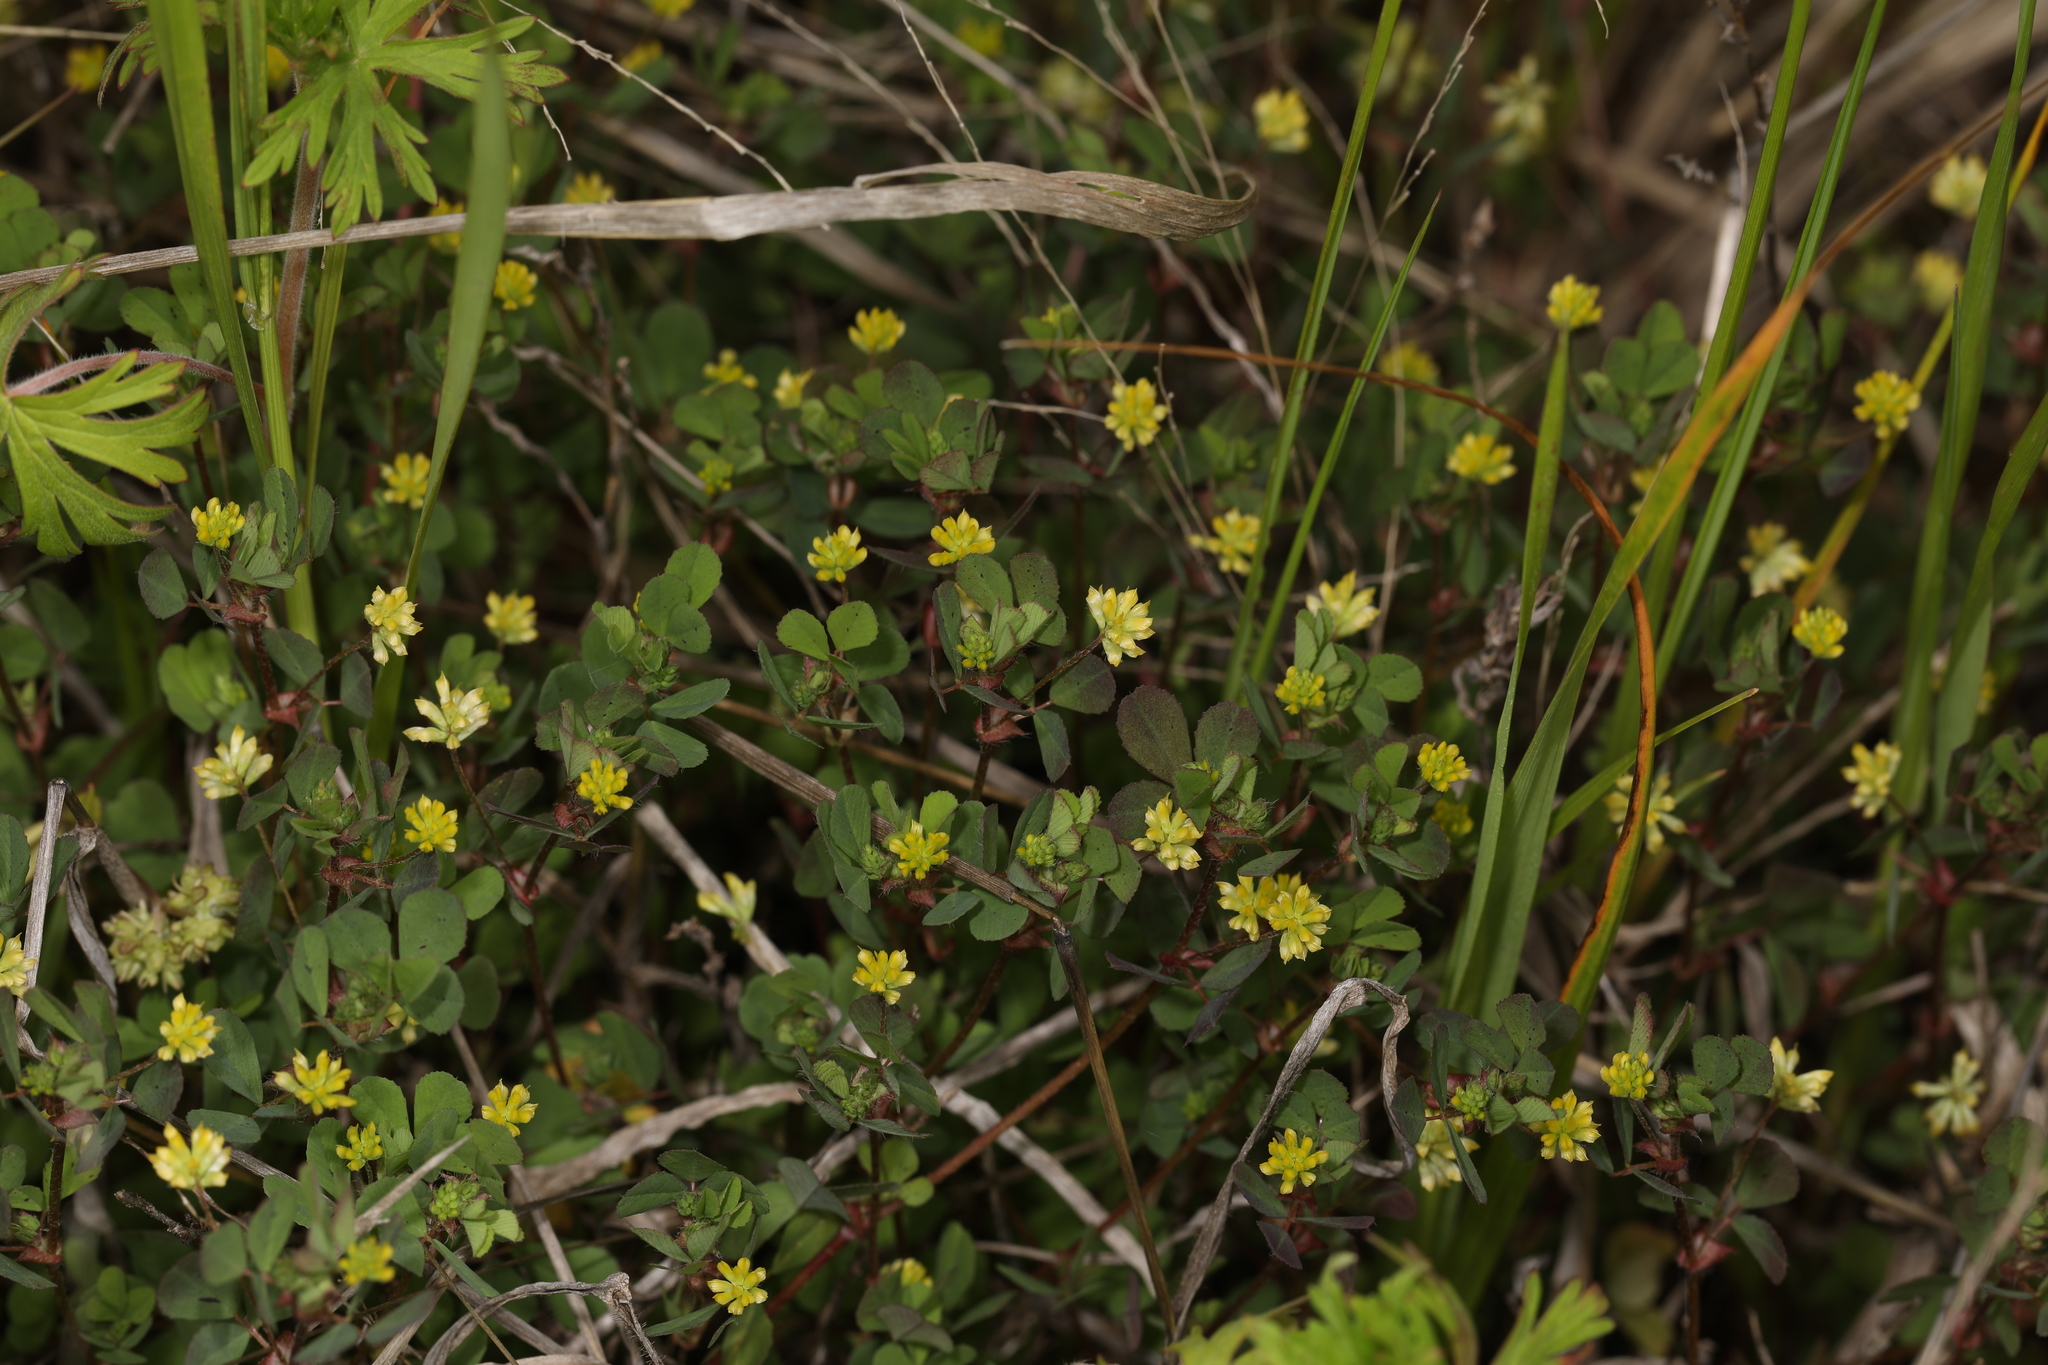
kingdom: Plantae
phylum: Tracheophyta
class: Magnoliopsida
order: Fabales
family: Fabaceae
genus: Trifolium
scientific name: Trifolium dubium
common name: Suckling clover
